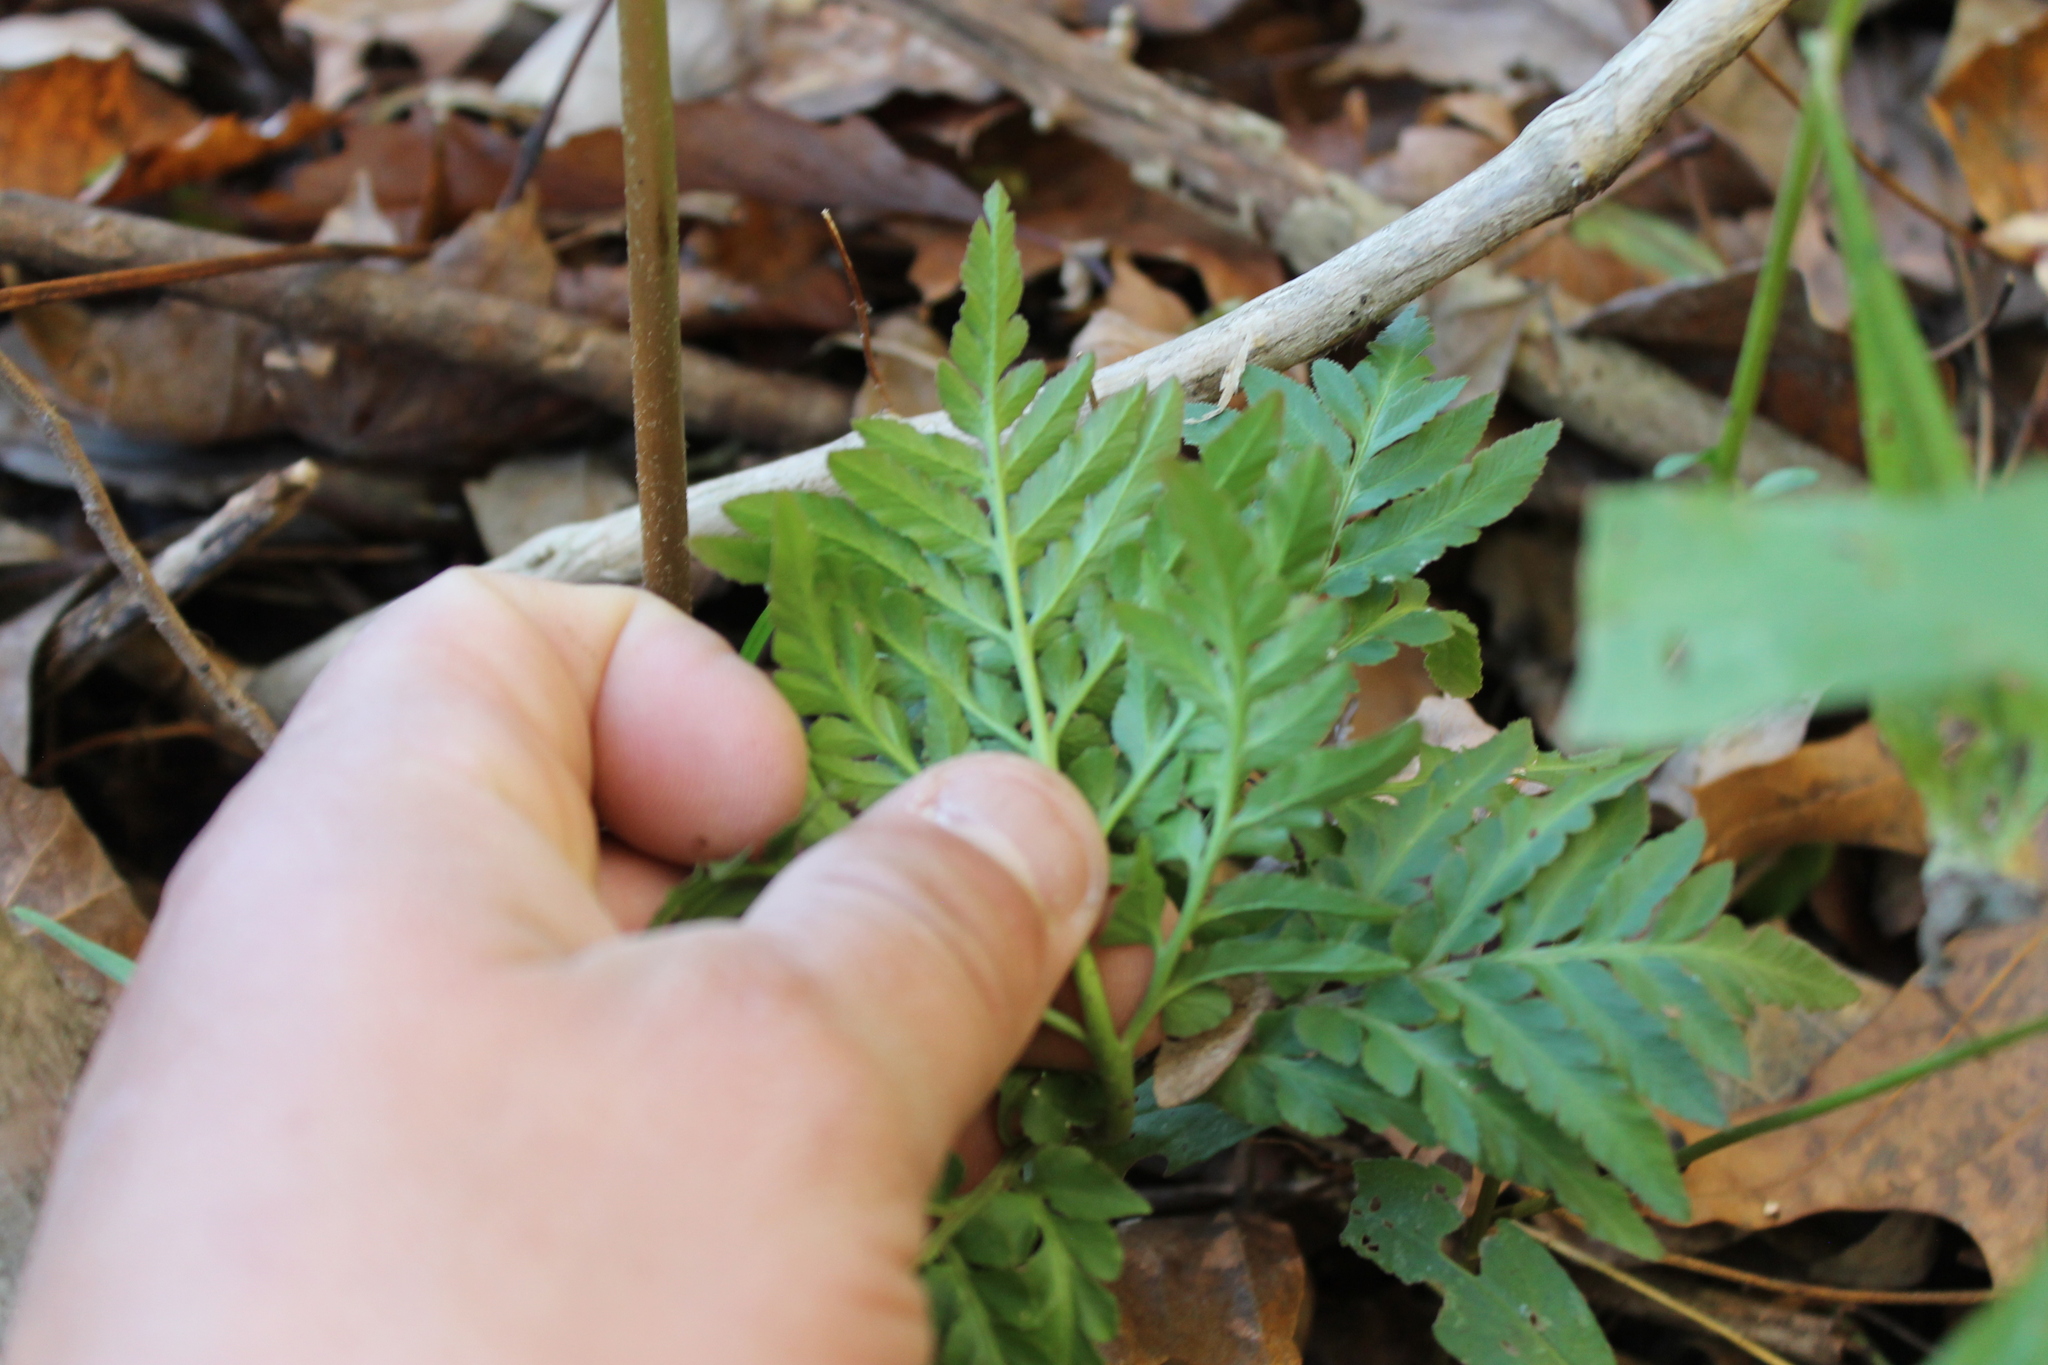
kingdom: Plantae
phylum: Tracheophyta
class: Polypodiopsida
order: Ophioglossales
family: Ophioglossaceae
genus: Sceptridium
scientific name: Sceptridium dissectum
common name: Cut-leaved grapefern
